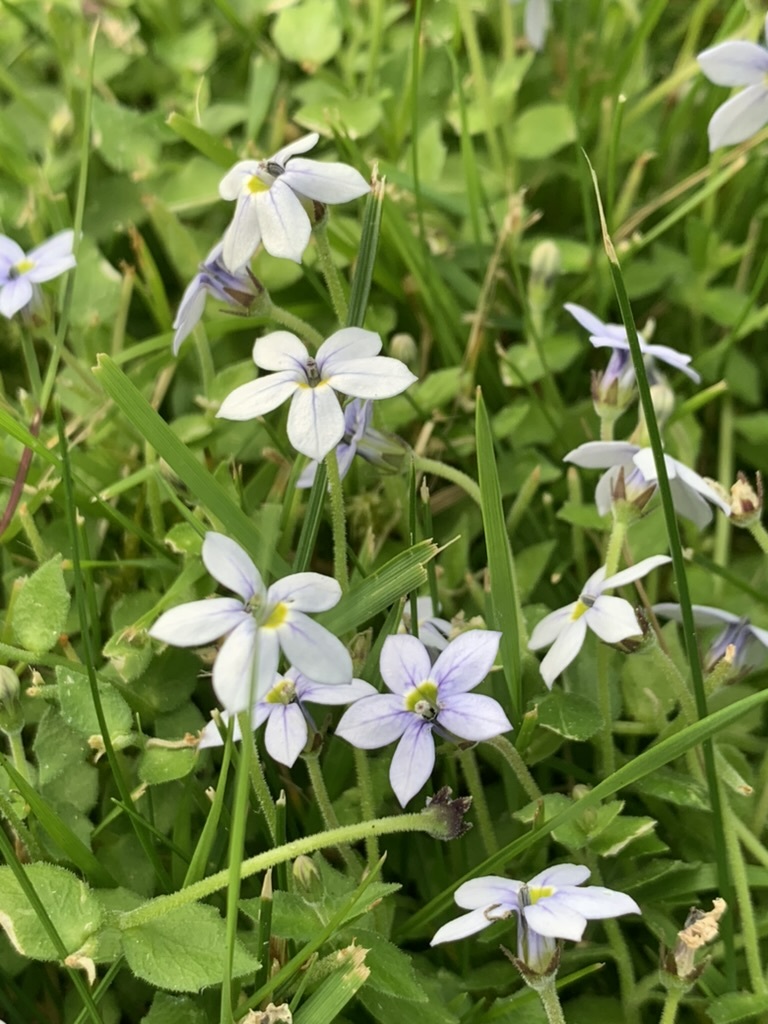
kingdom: Plantae
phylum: Tracheophyta
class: Magnoliopsida
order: Asterales
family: Campanulaceae
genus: Lobelia
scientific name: Lobelia pedunculata
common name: Matted pratia
